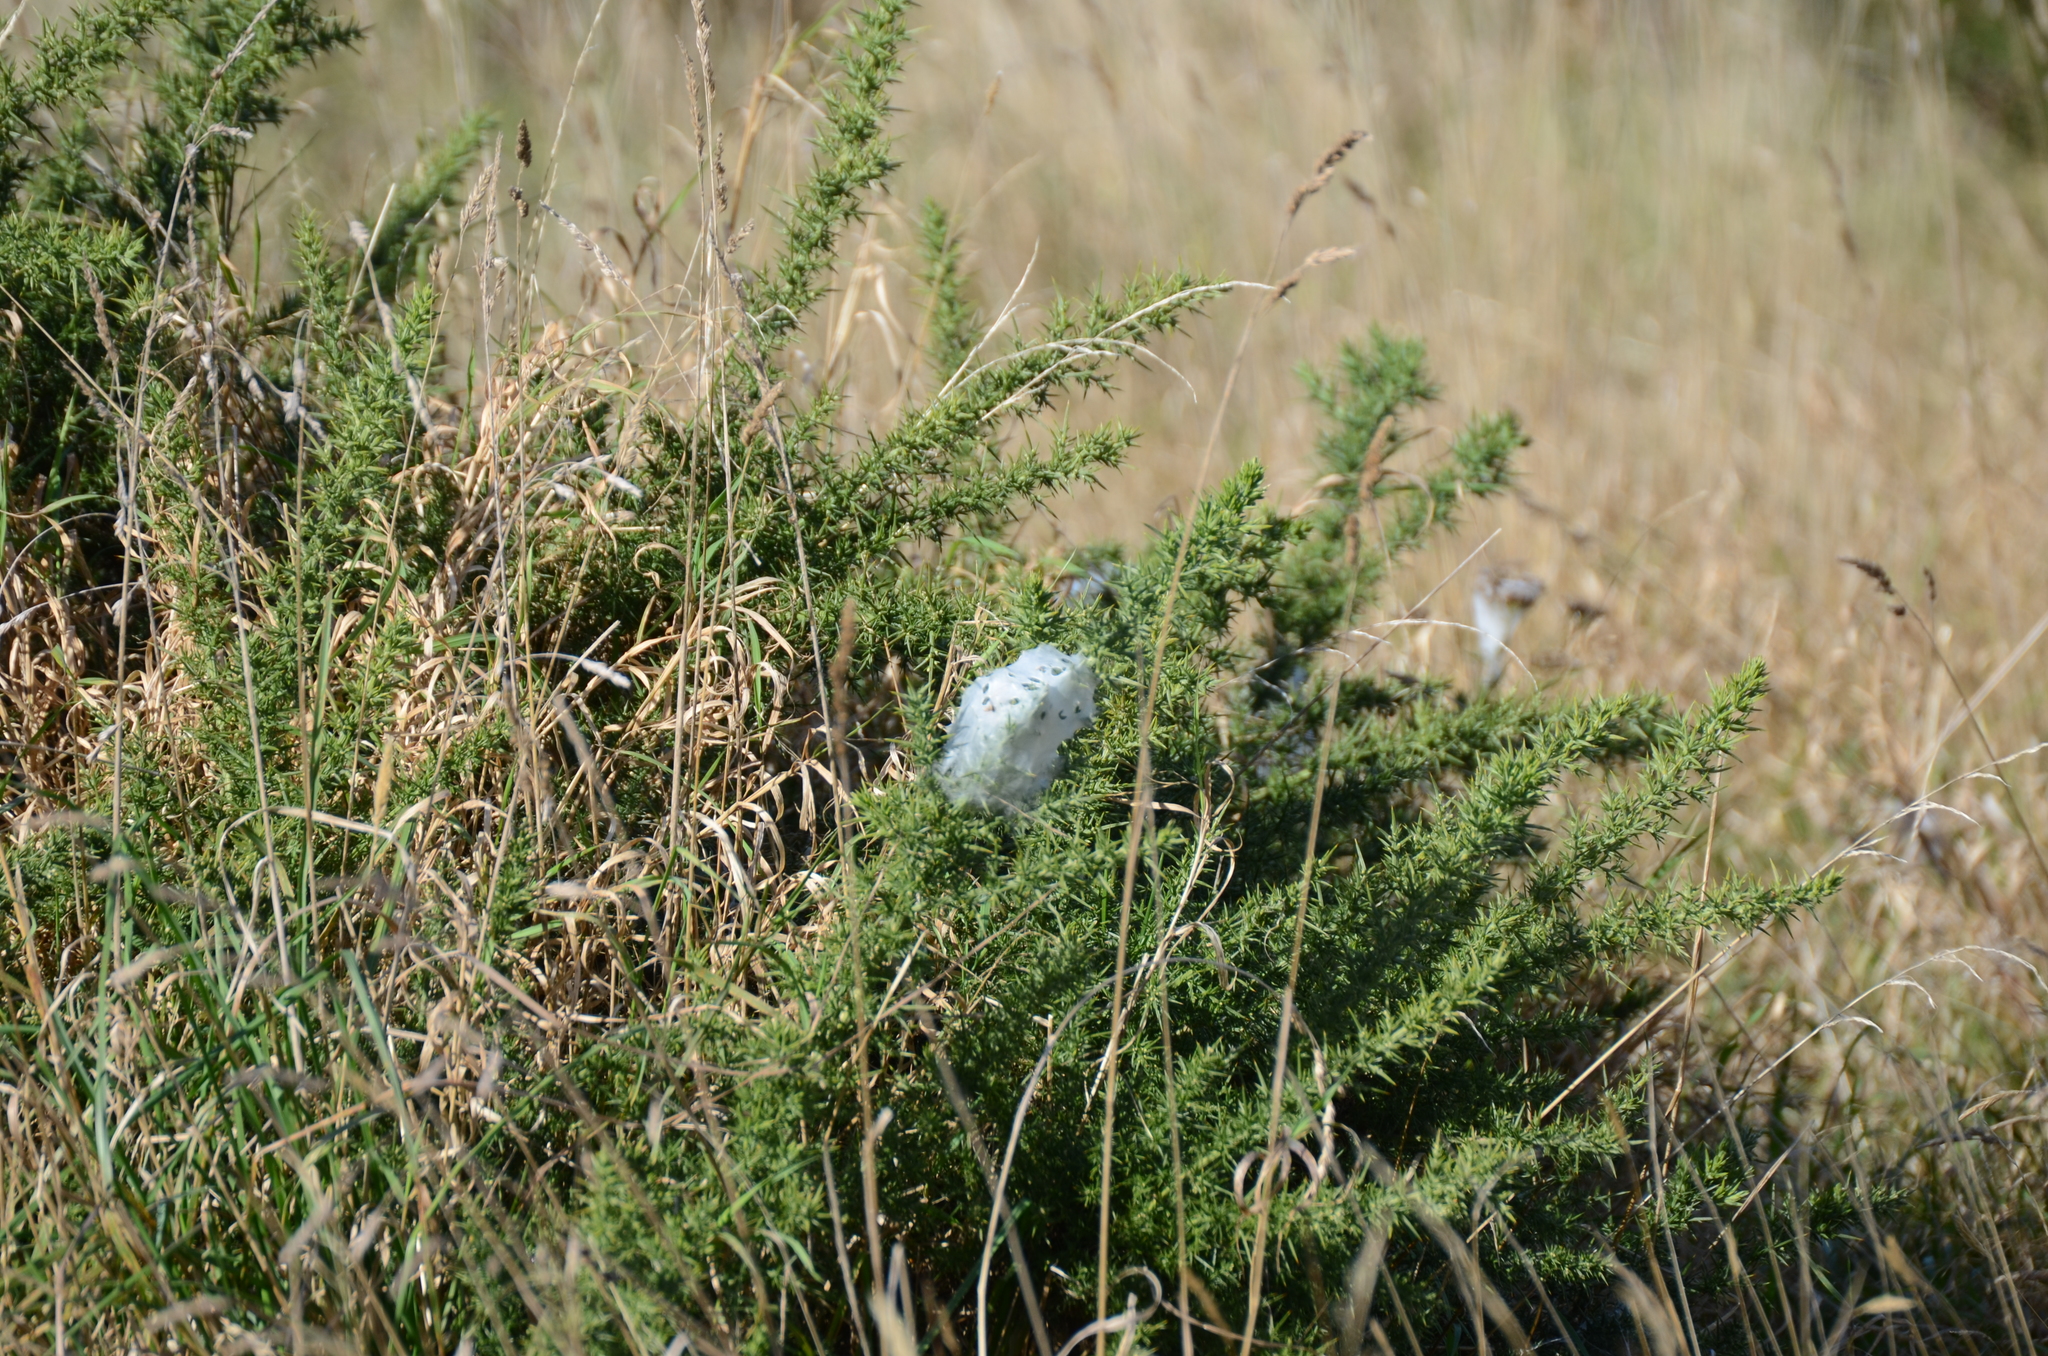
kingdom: Animalia
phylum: Arthropoda
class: Arachnida
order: Araneae
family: Pisauridae
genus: Dolomedes
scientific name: Dolomedes minor
